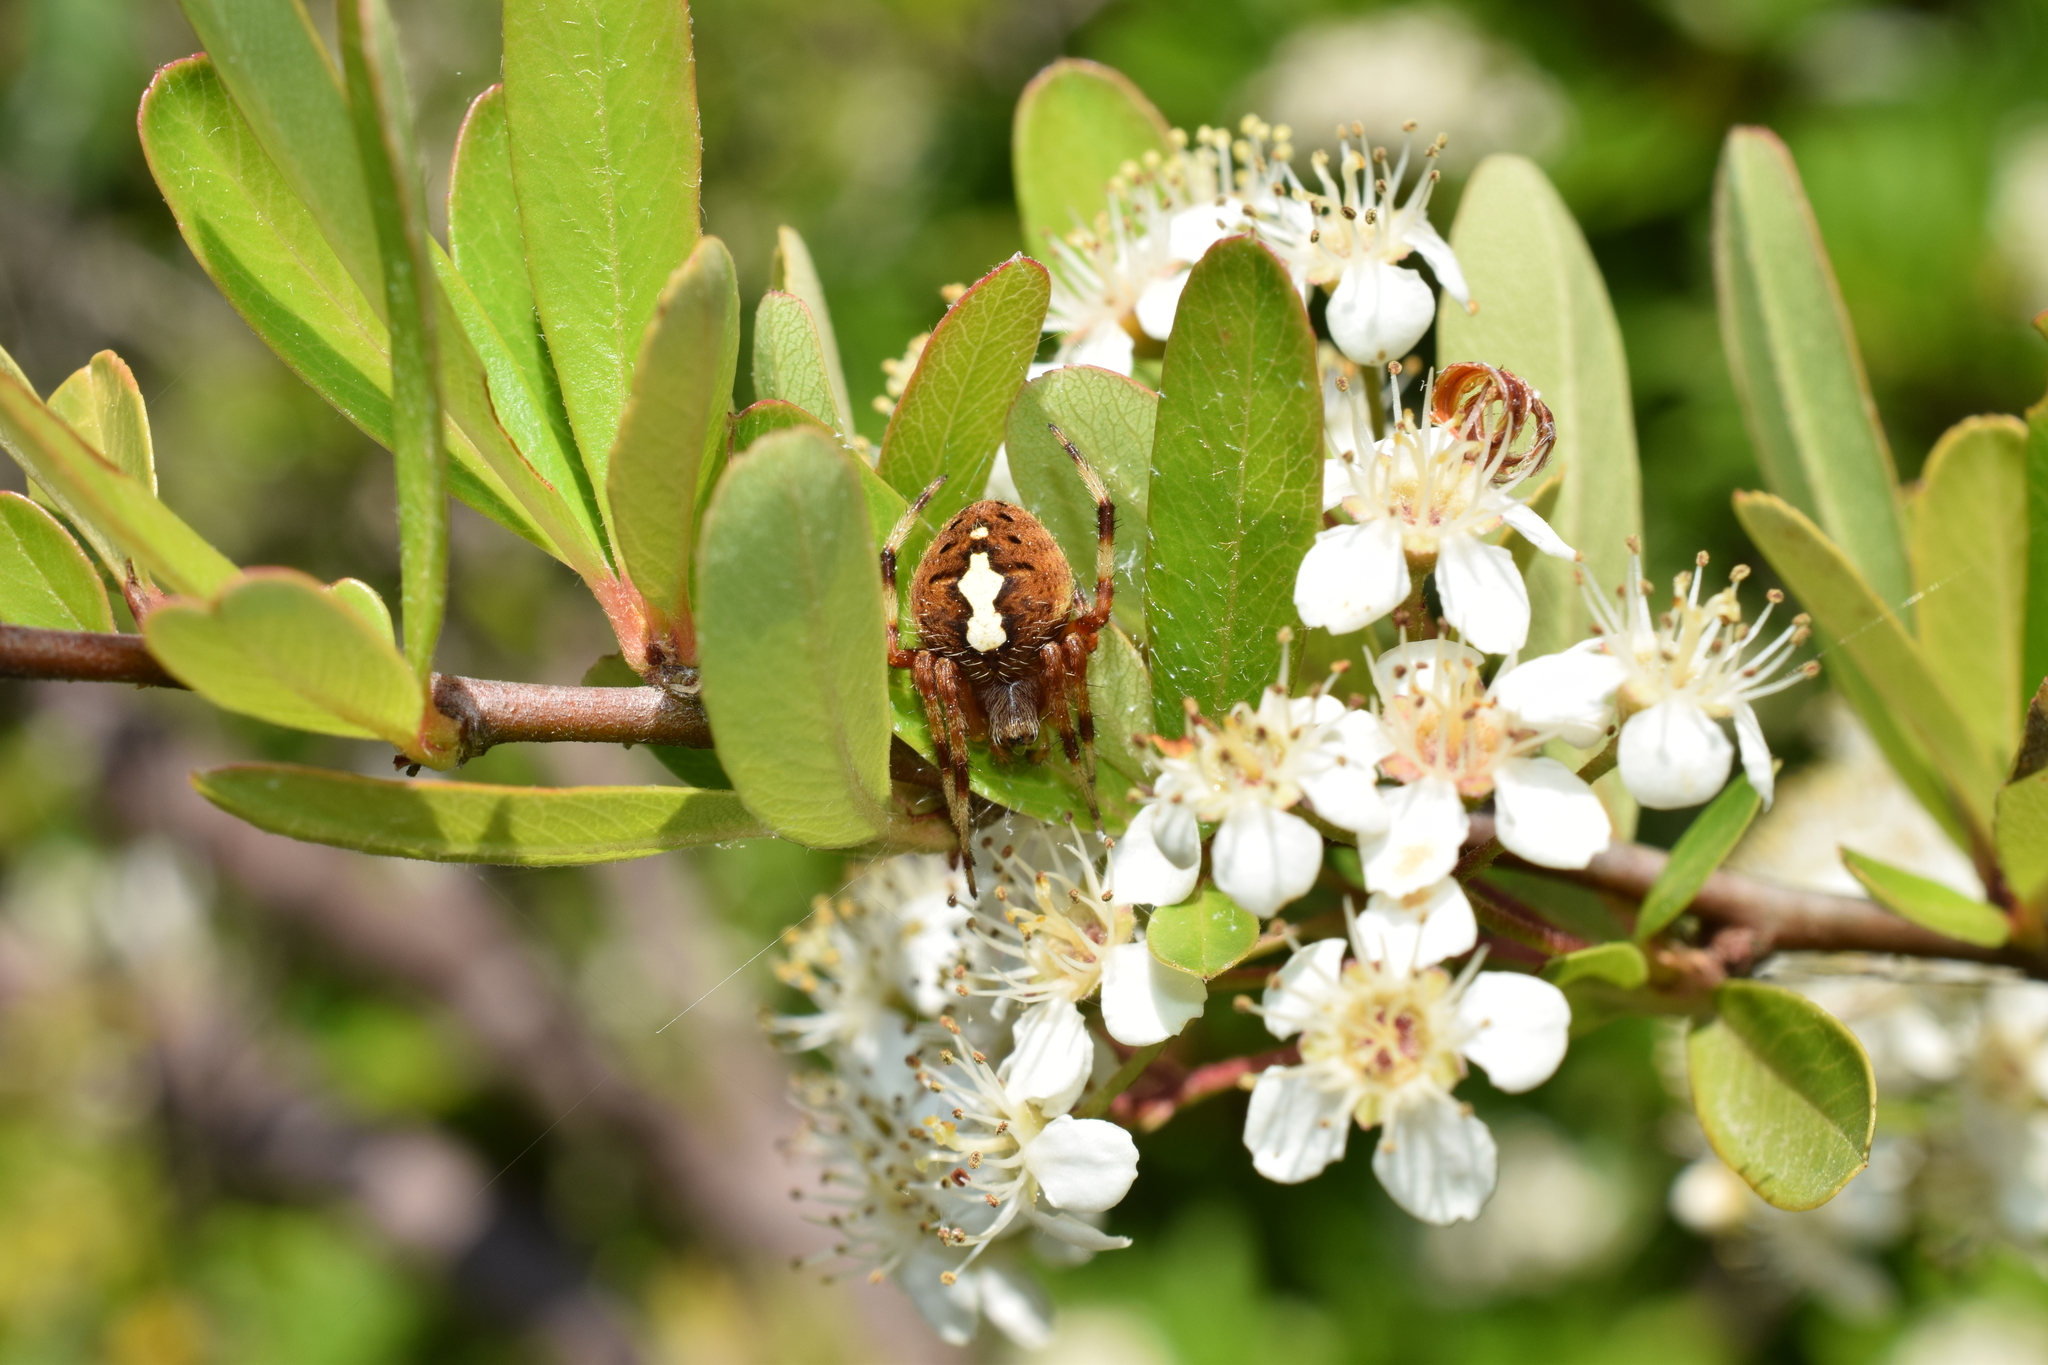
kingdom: Animalia
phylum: Arthropoda
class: Arachnida
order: Araneae
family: Araneidae
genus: Neoscona
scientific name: Neoscona scylla
